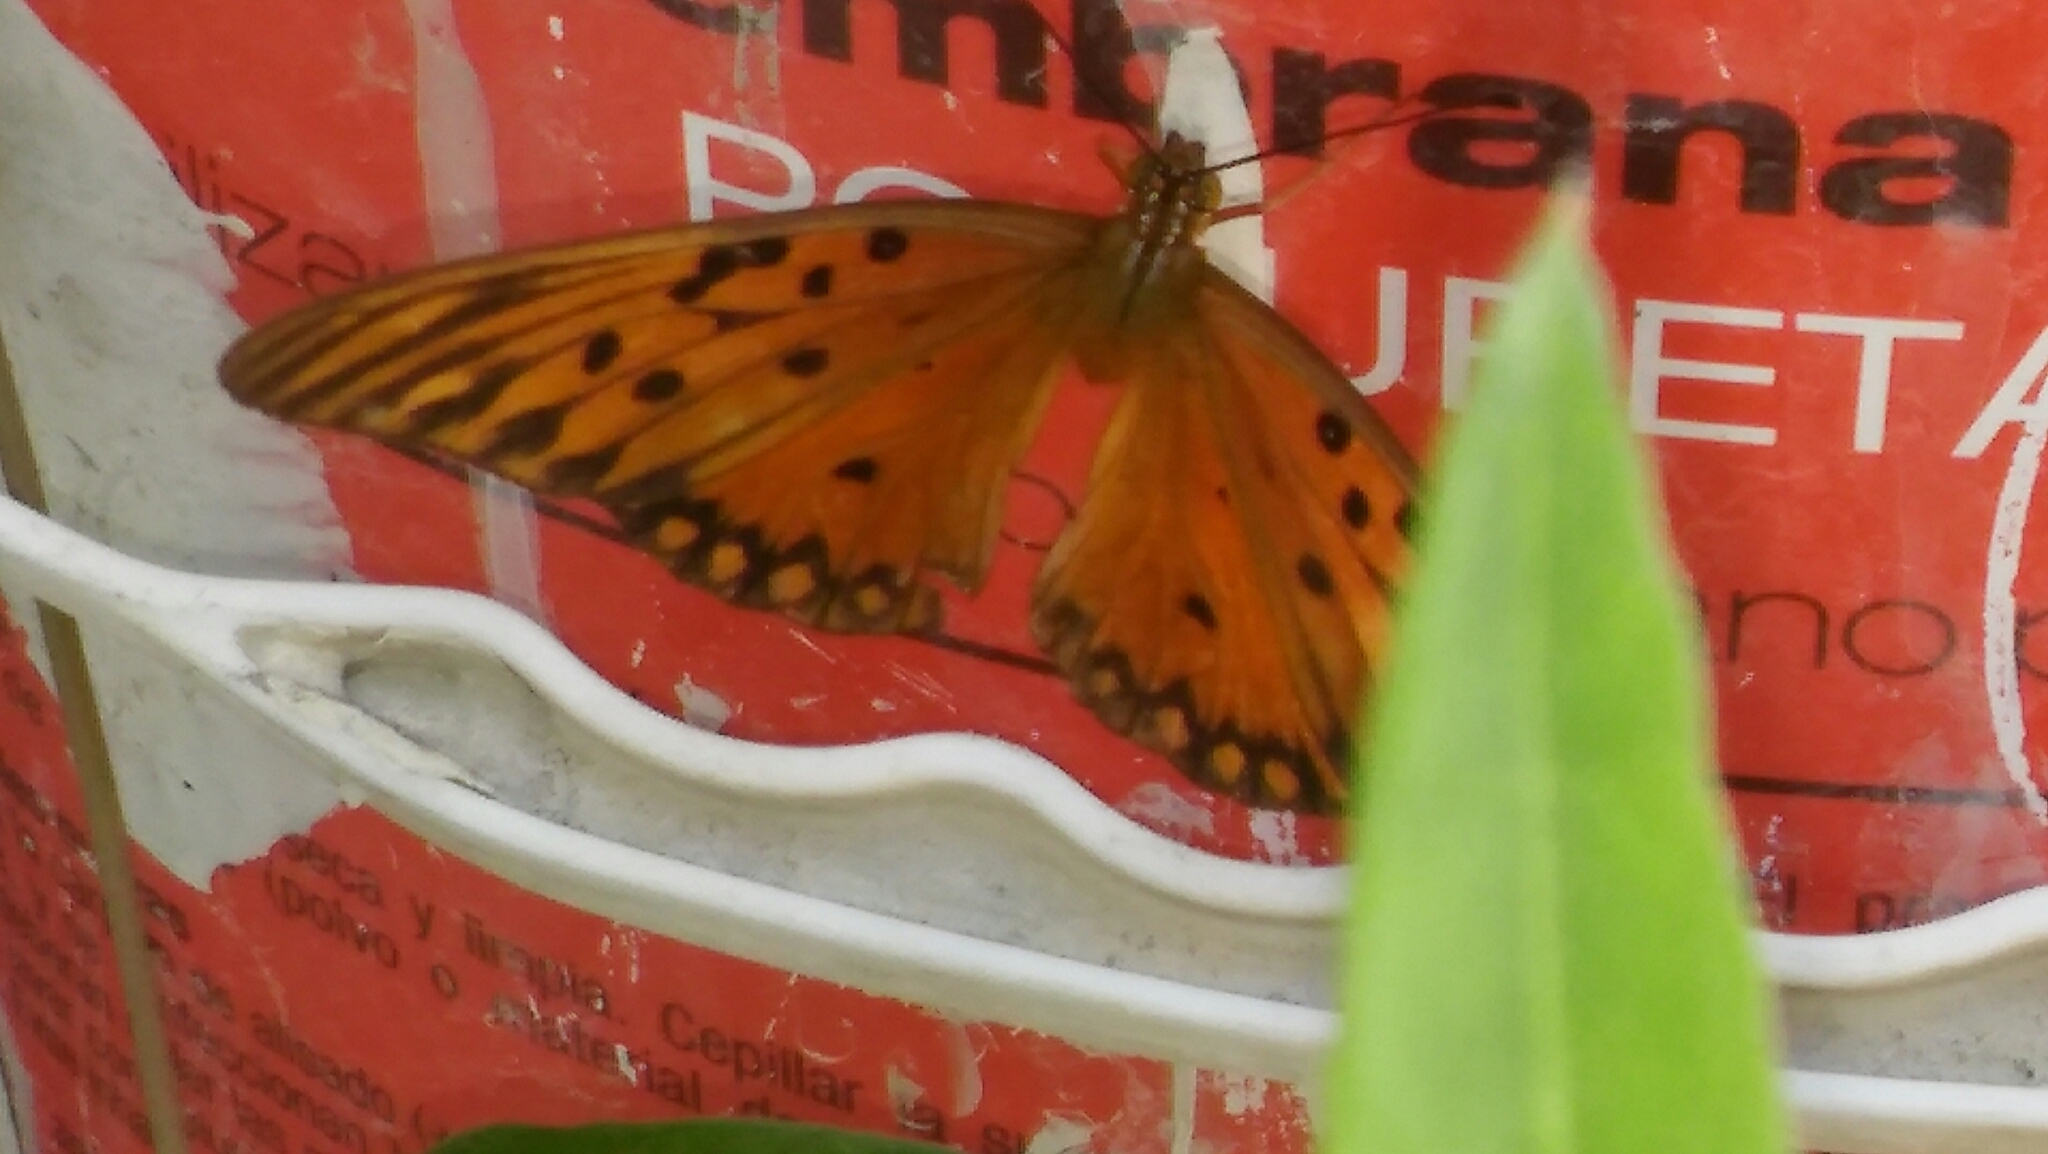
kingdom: Animalia
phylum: Arthropoda
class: Insecta
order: Lepidoptera
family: Nymphalidae
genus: Dione
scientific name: Dione vanillae
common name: Gulf fritillary
